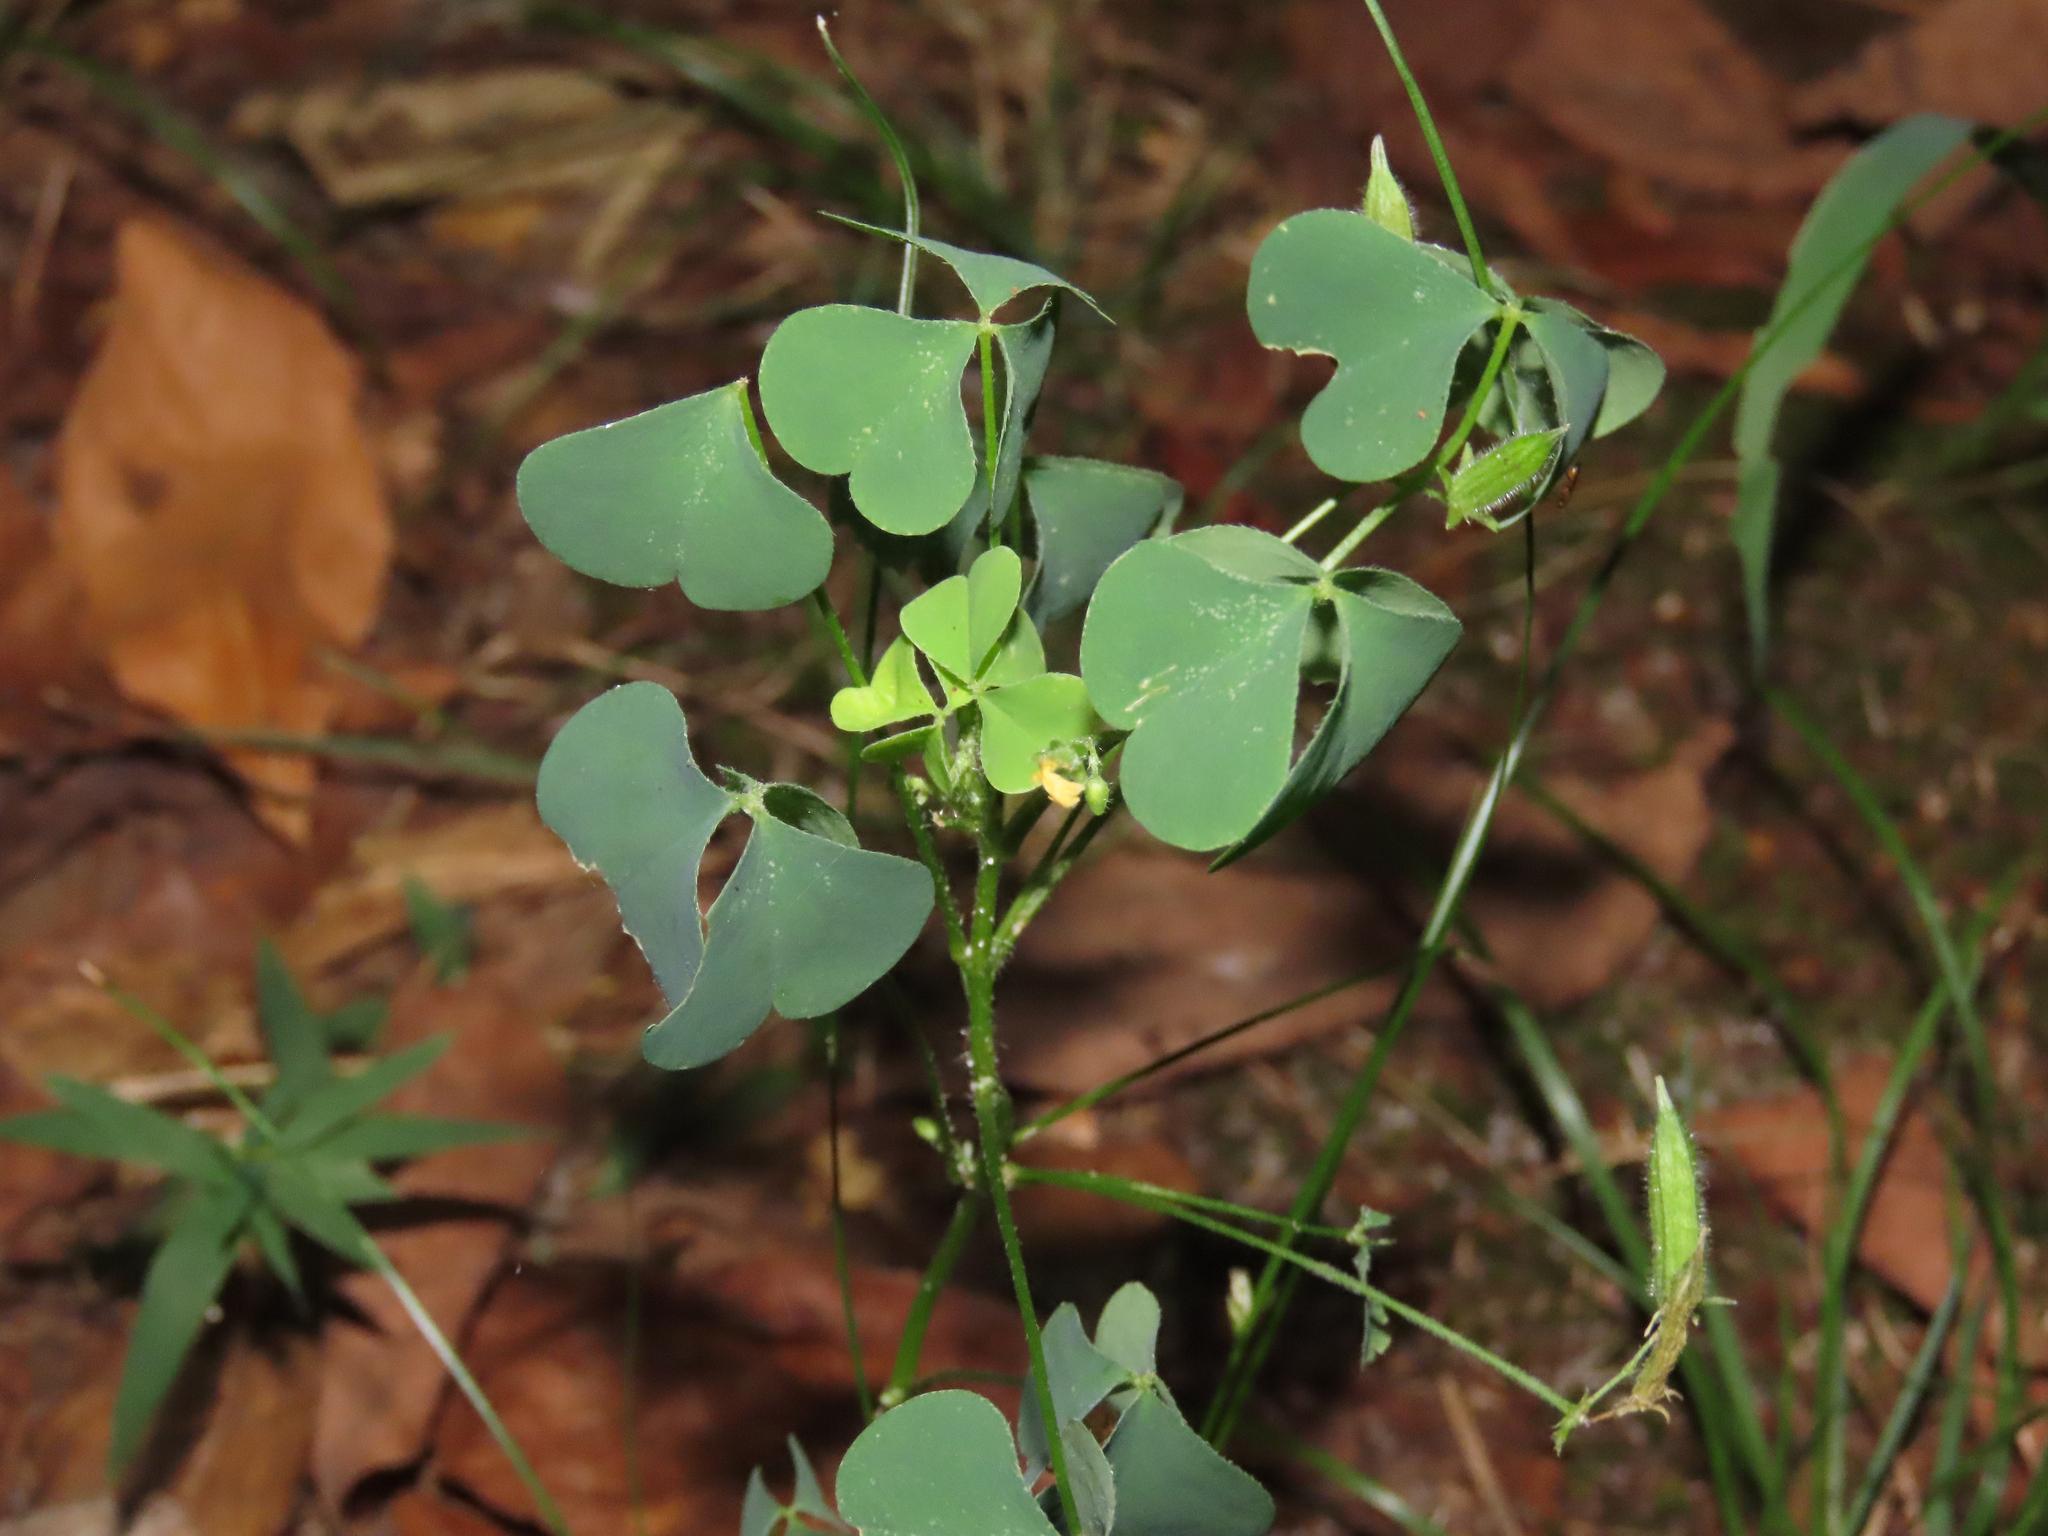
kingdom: Plantae
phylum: Tracheophyta
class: Magnoliopsida
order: Oxalidales
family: Oxalidaceae
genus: Oxalis
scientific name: Oxalis stricta
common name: Upright yellow-sorrel
